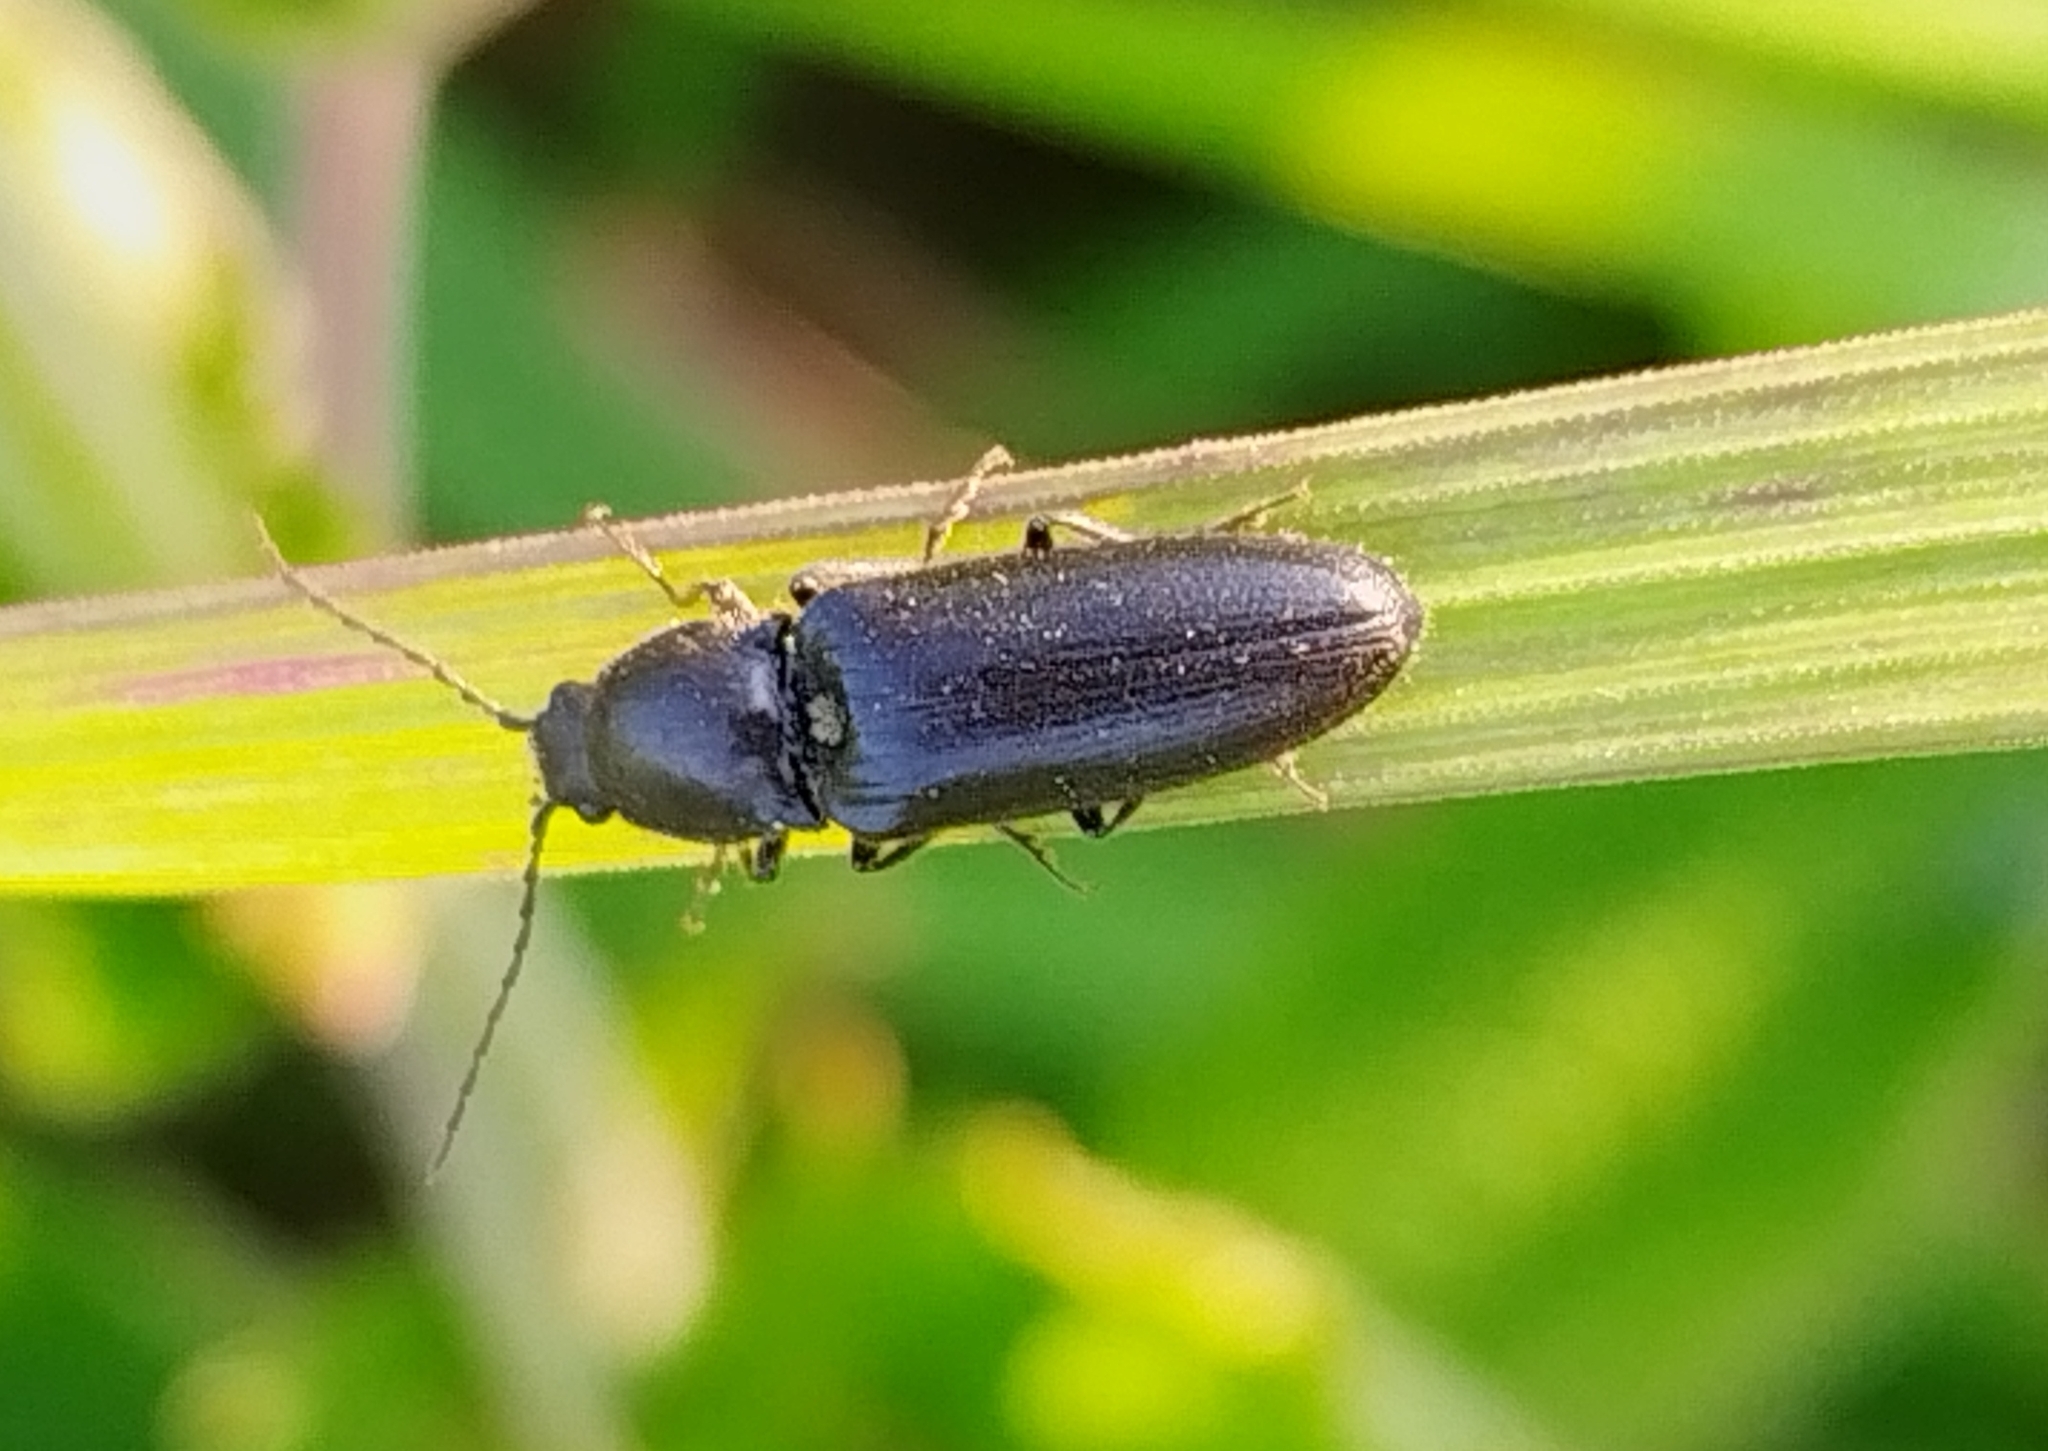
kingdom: Animalia
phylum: Arthropoda
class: Insecta
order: Coleoptera
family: Elateridae
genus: Hemicrepidius
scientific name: Hemicrepidius niger
